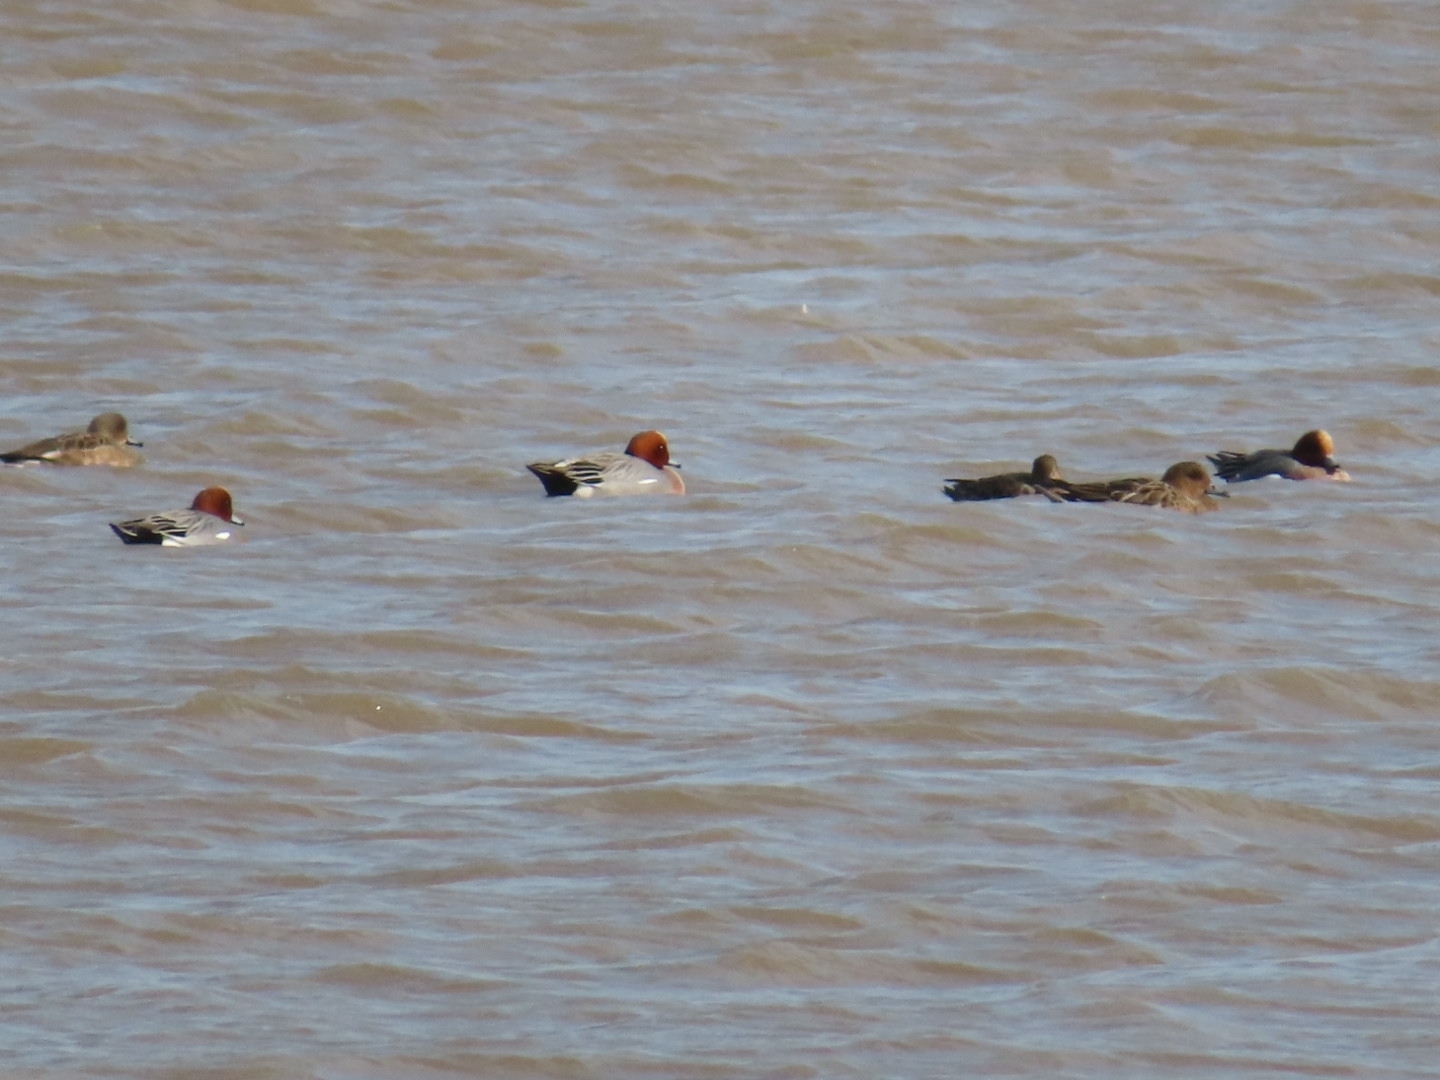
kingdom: Animalia
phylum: Chordata
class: Aves
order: Anseriformes
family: Anatidae
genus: Mareca
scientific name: Mareca penelope
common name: Eurasian wigeon
